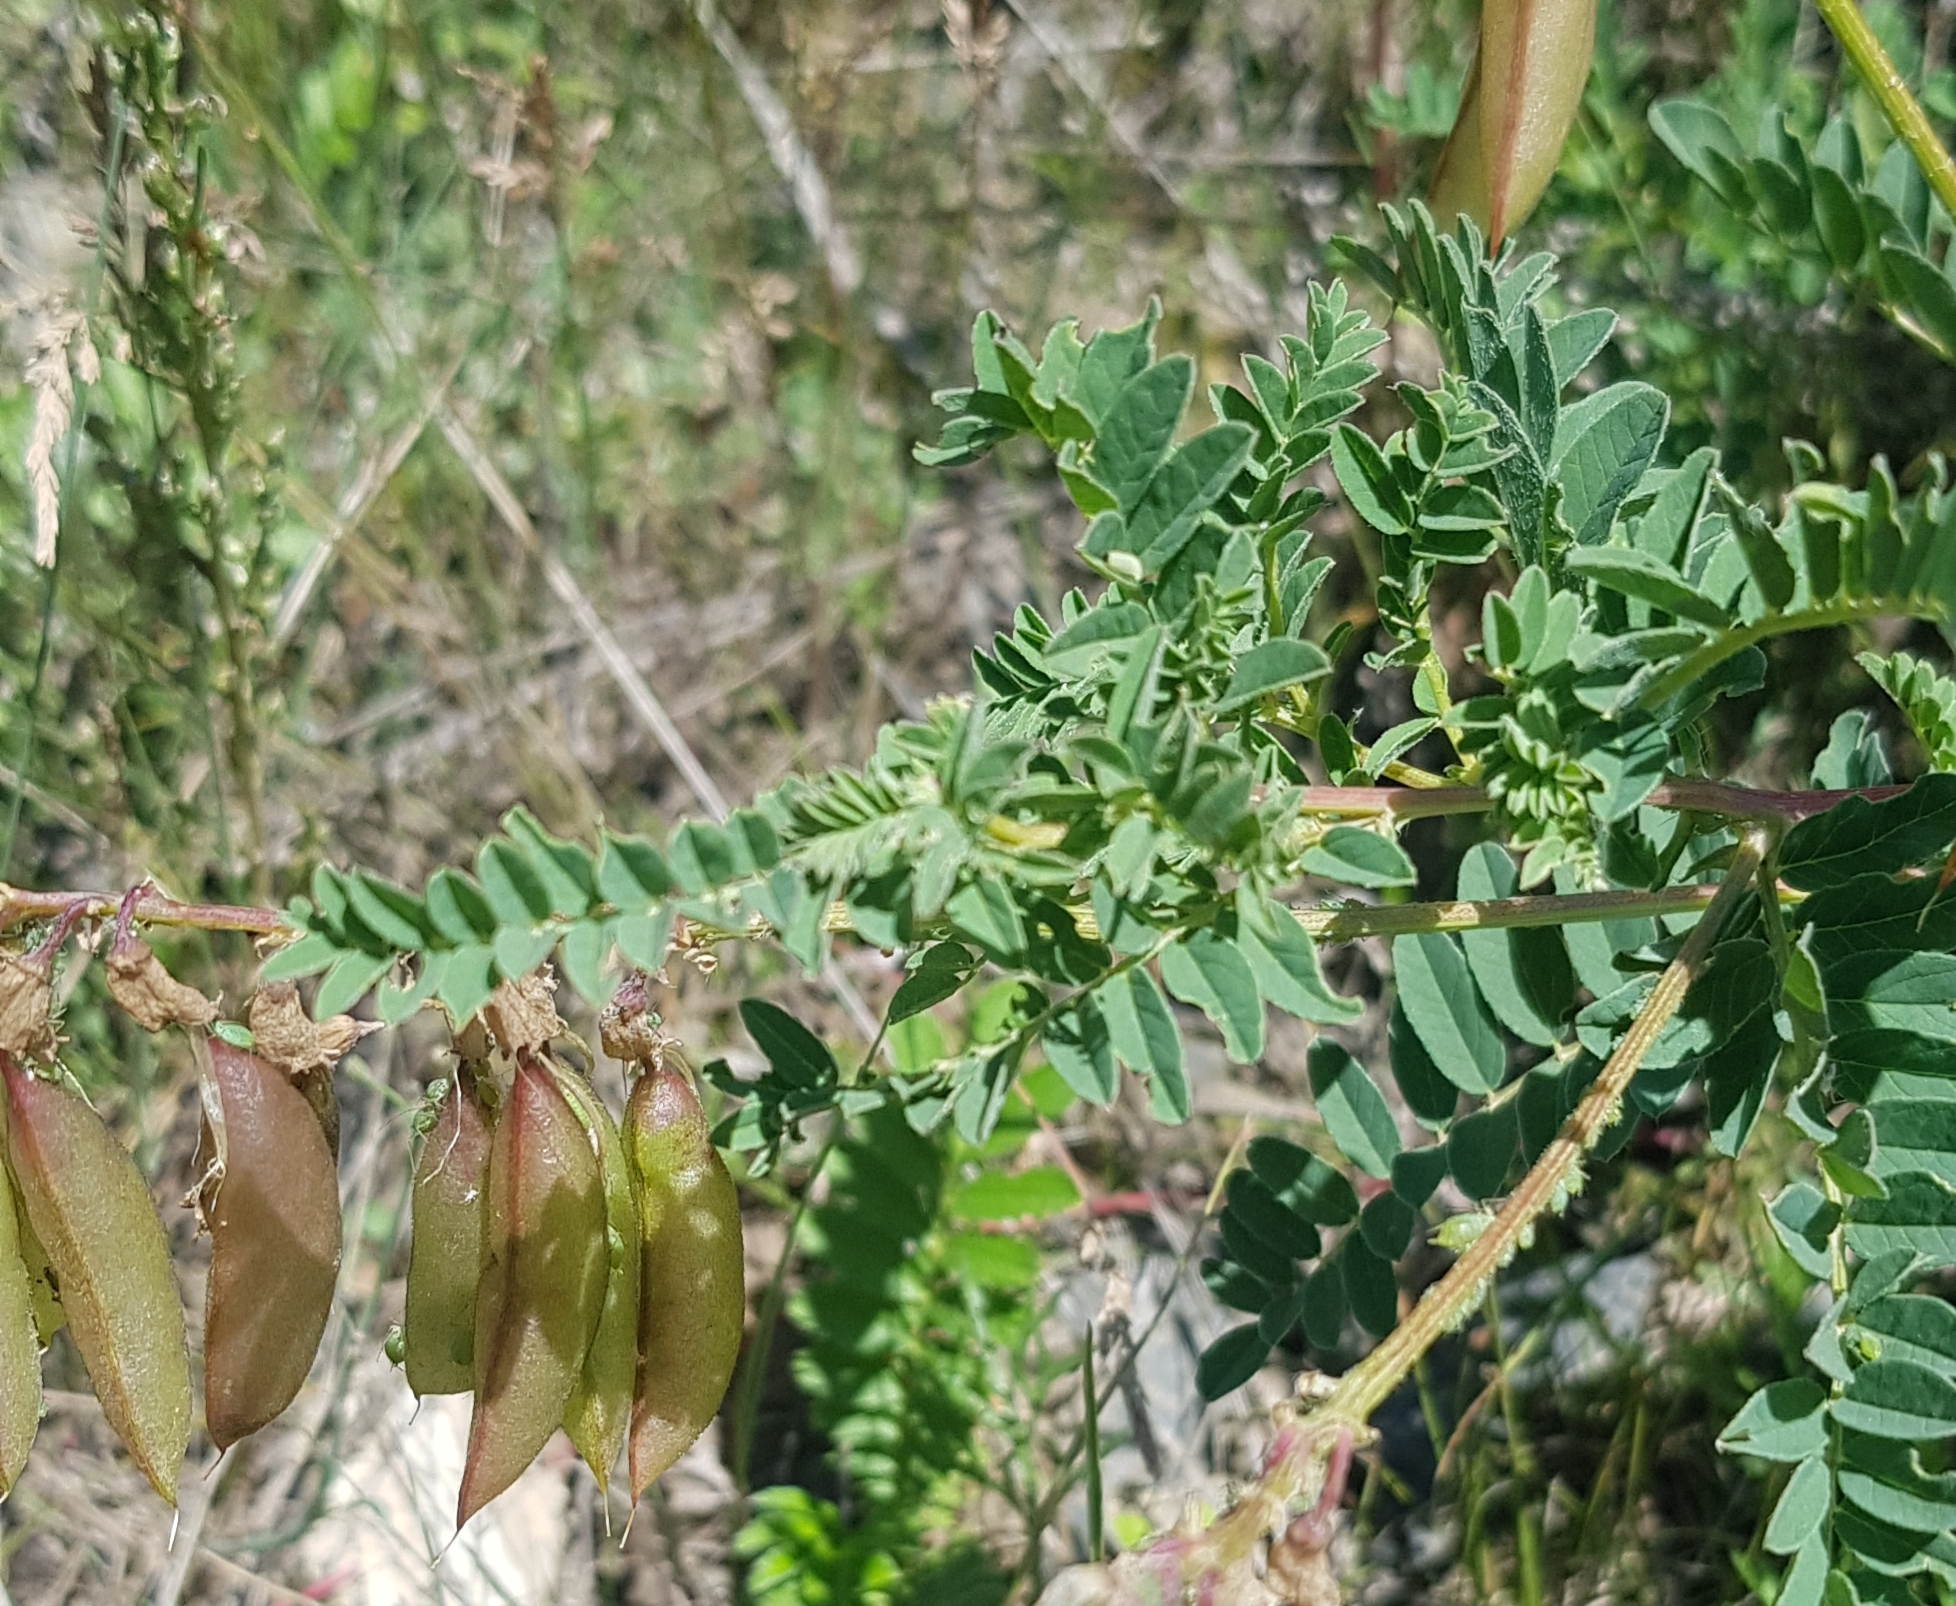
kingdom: Plantae
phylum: Tracheophyta
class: Magnoliopsida
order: Fabales
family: Fabaceae
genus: Astragalus
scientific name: Astragalus mongholicus
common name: Membranous milk-vetch
